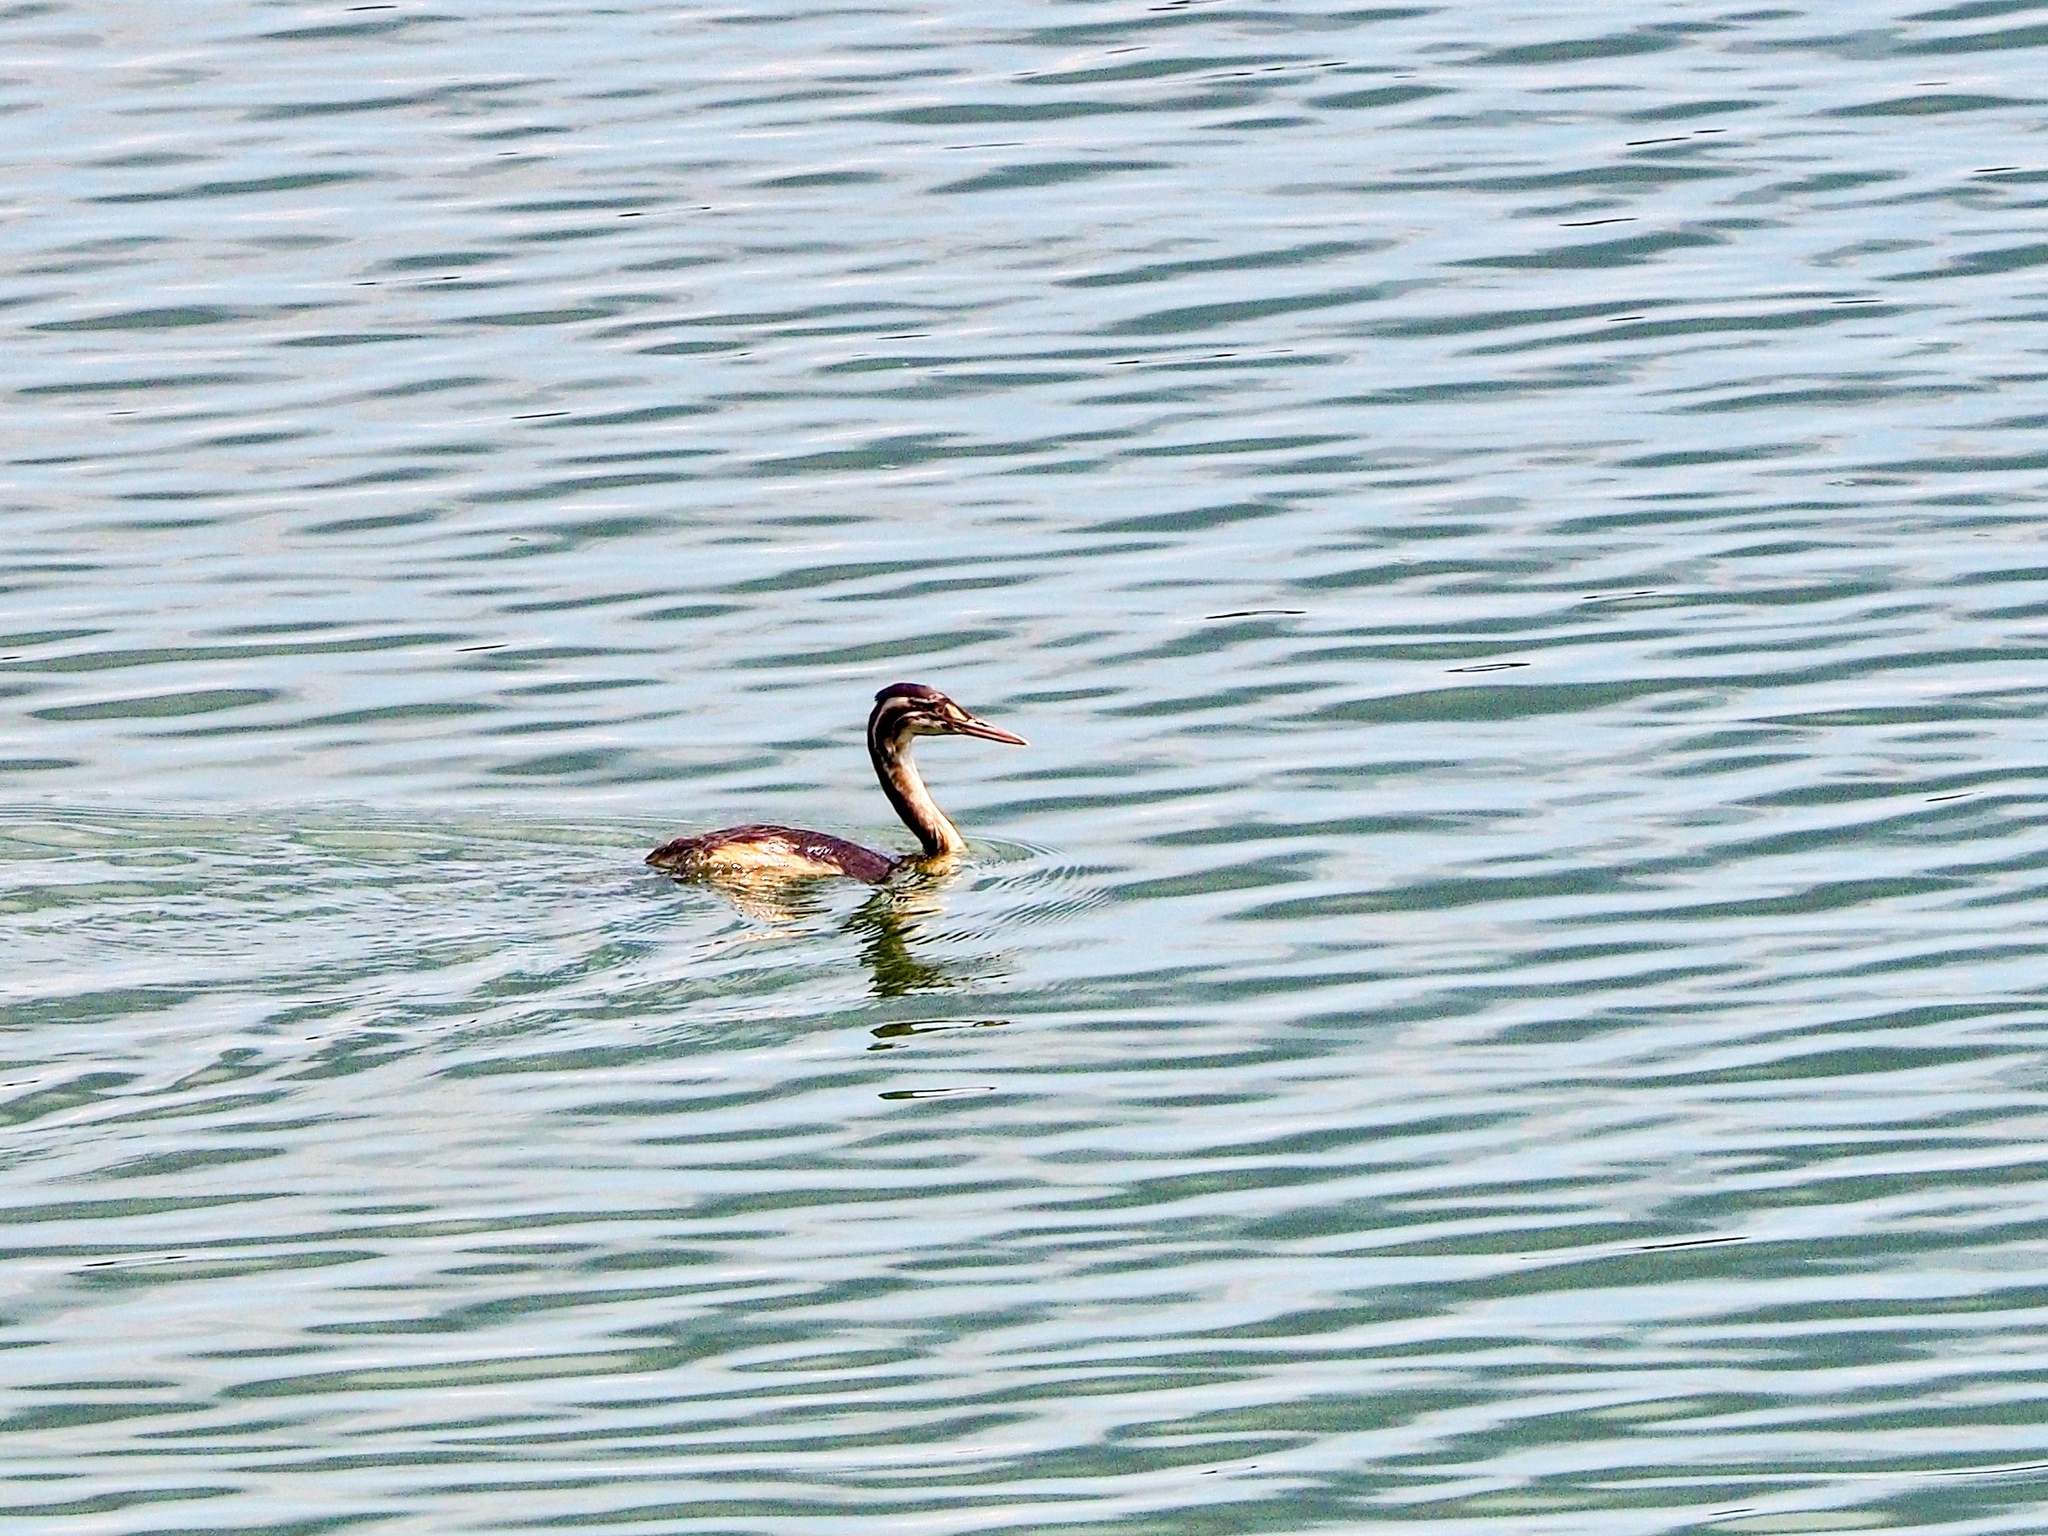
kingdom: Animalia
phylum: Chordata
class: Aves
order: Podicipediformes
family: Podicipedidae
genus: Podiceps
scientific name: Podiceps cristatus
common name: Great crested grebe
